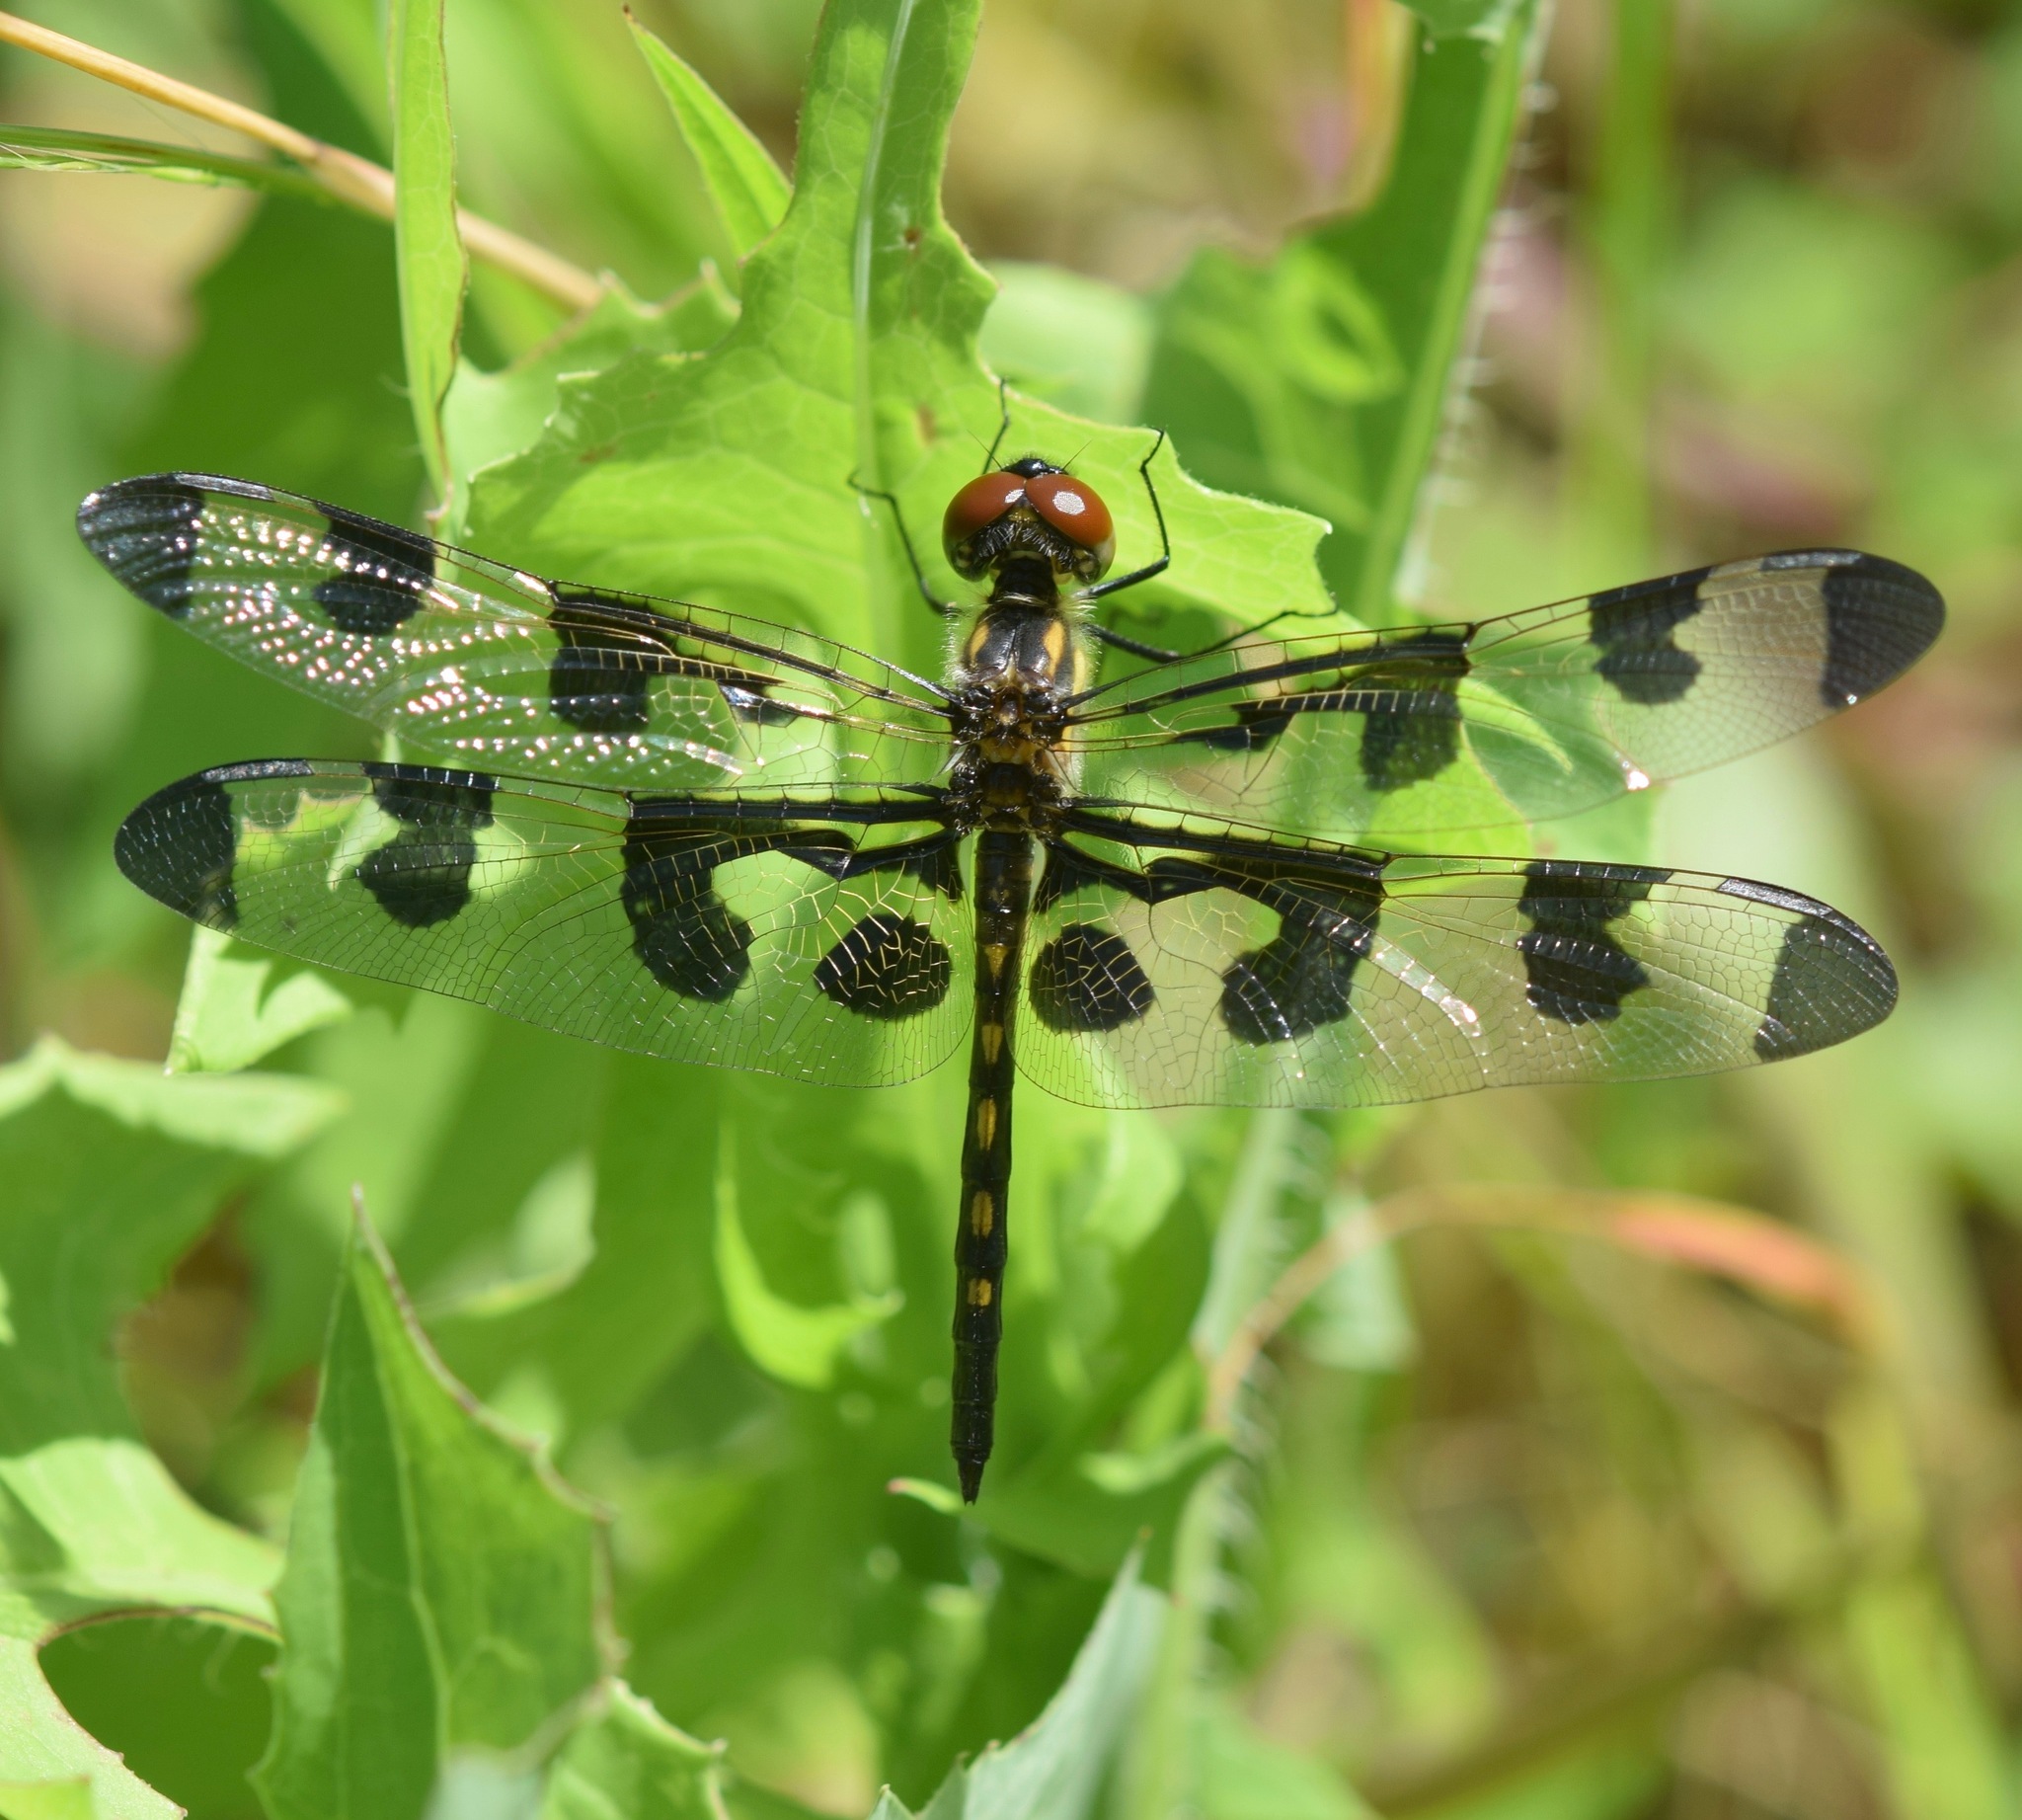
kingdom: Animalia
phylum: Arthropoda
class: Insecta
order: Odonata
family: Libellulidae
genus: Celithemis
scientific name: Celithemis fasciata
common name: Banded pennant
